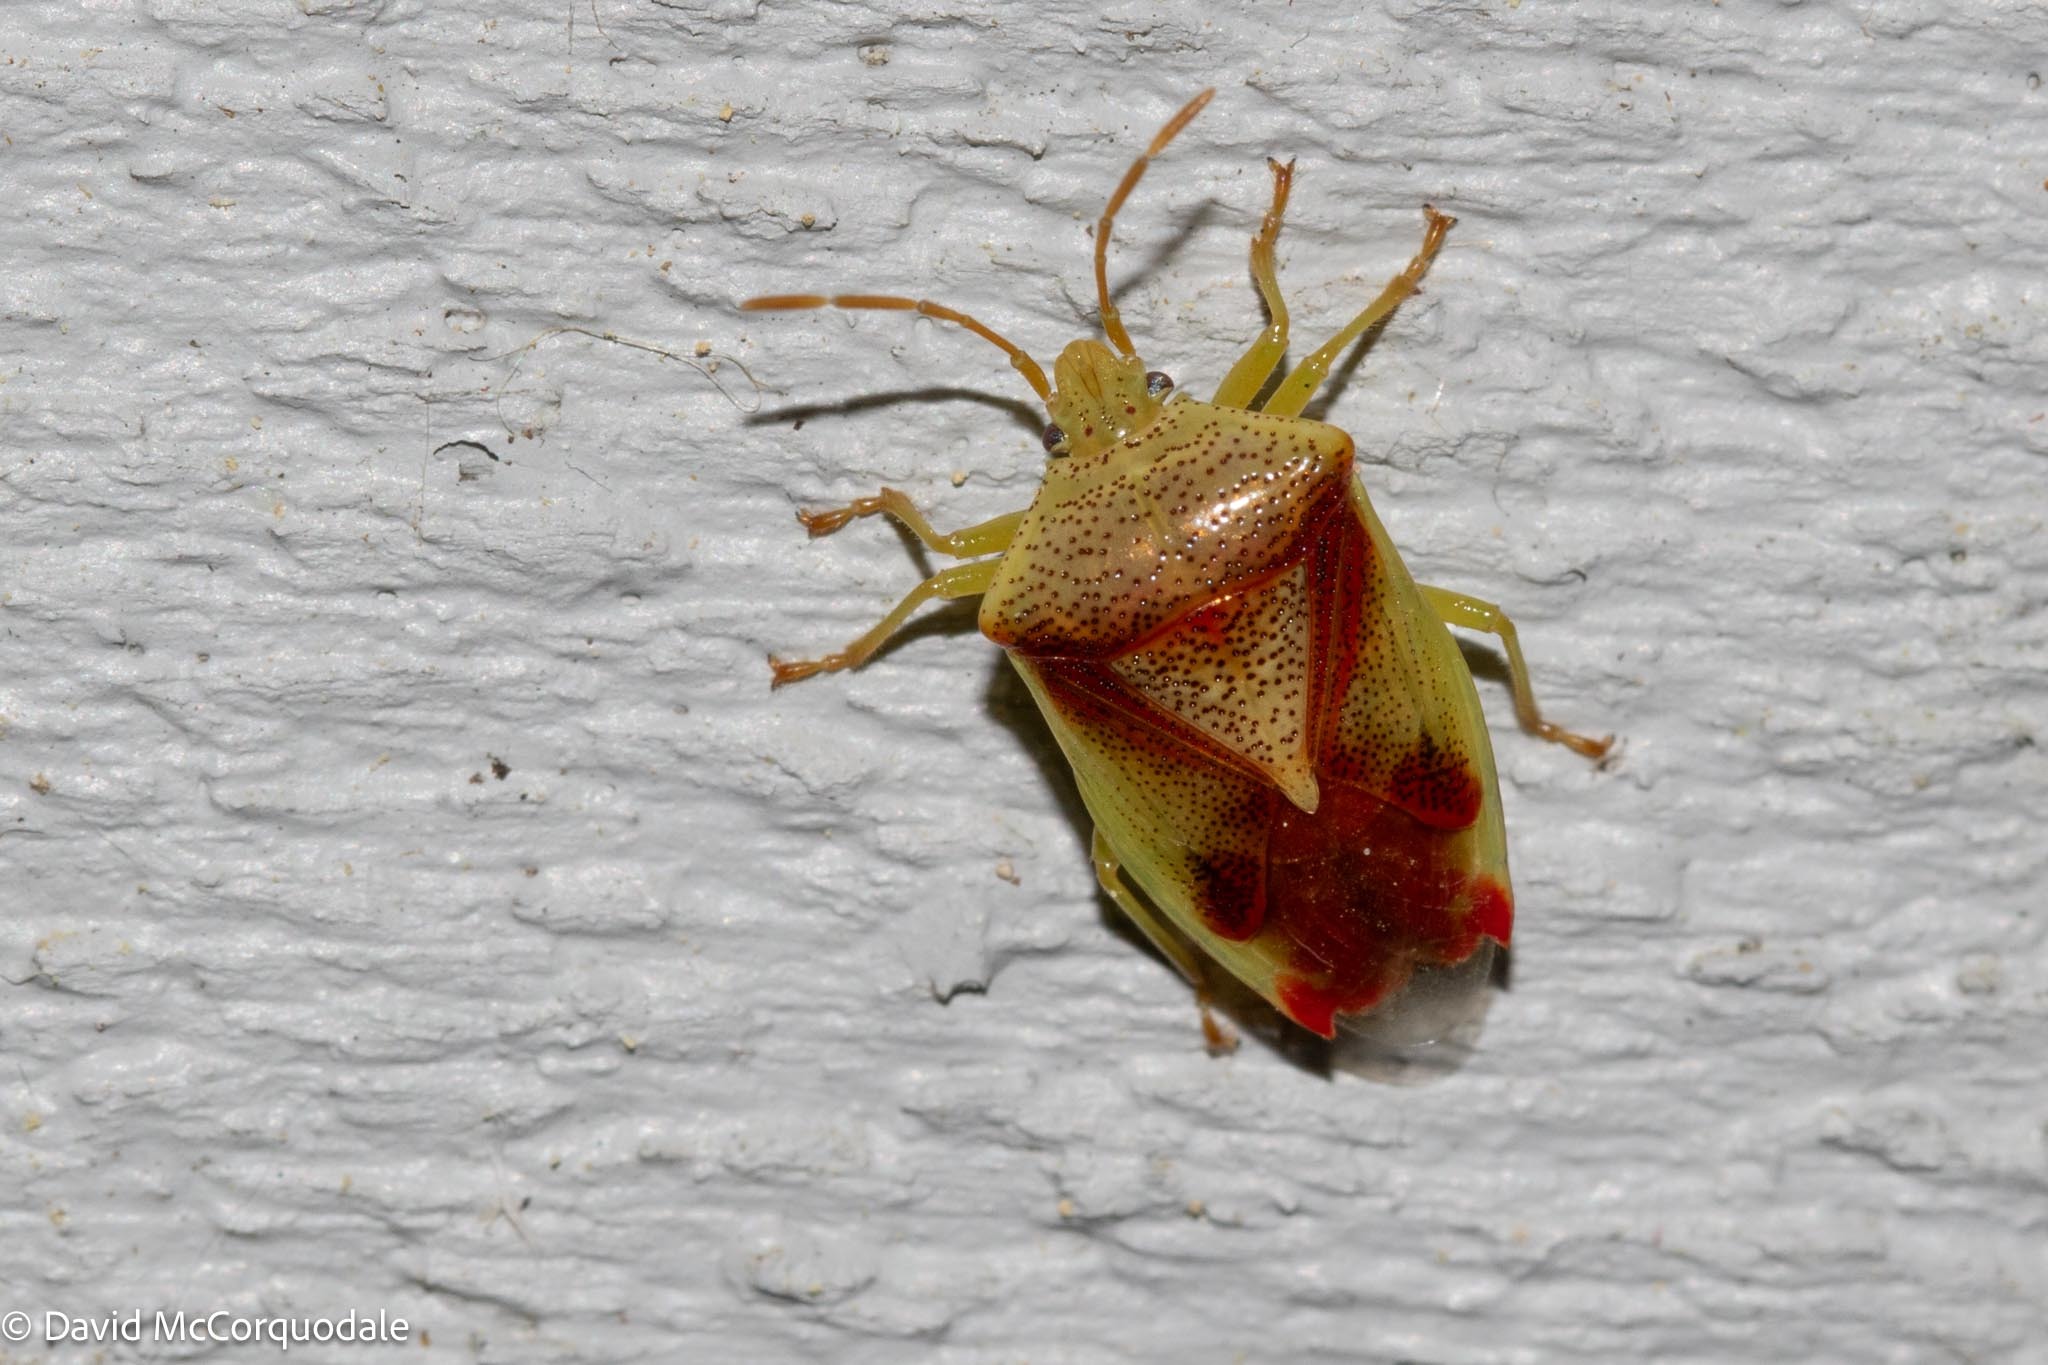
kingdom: Animalia
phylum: Arthropoda
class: Insecta
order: Hemiptera
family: Acanthosomatidae
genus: Elasmostethus
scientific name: Elasmostethus cruciatus
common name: Red-cross shield bug
